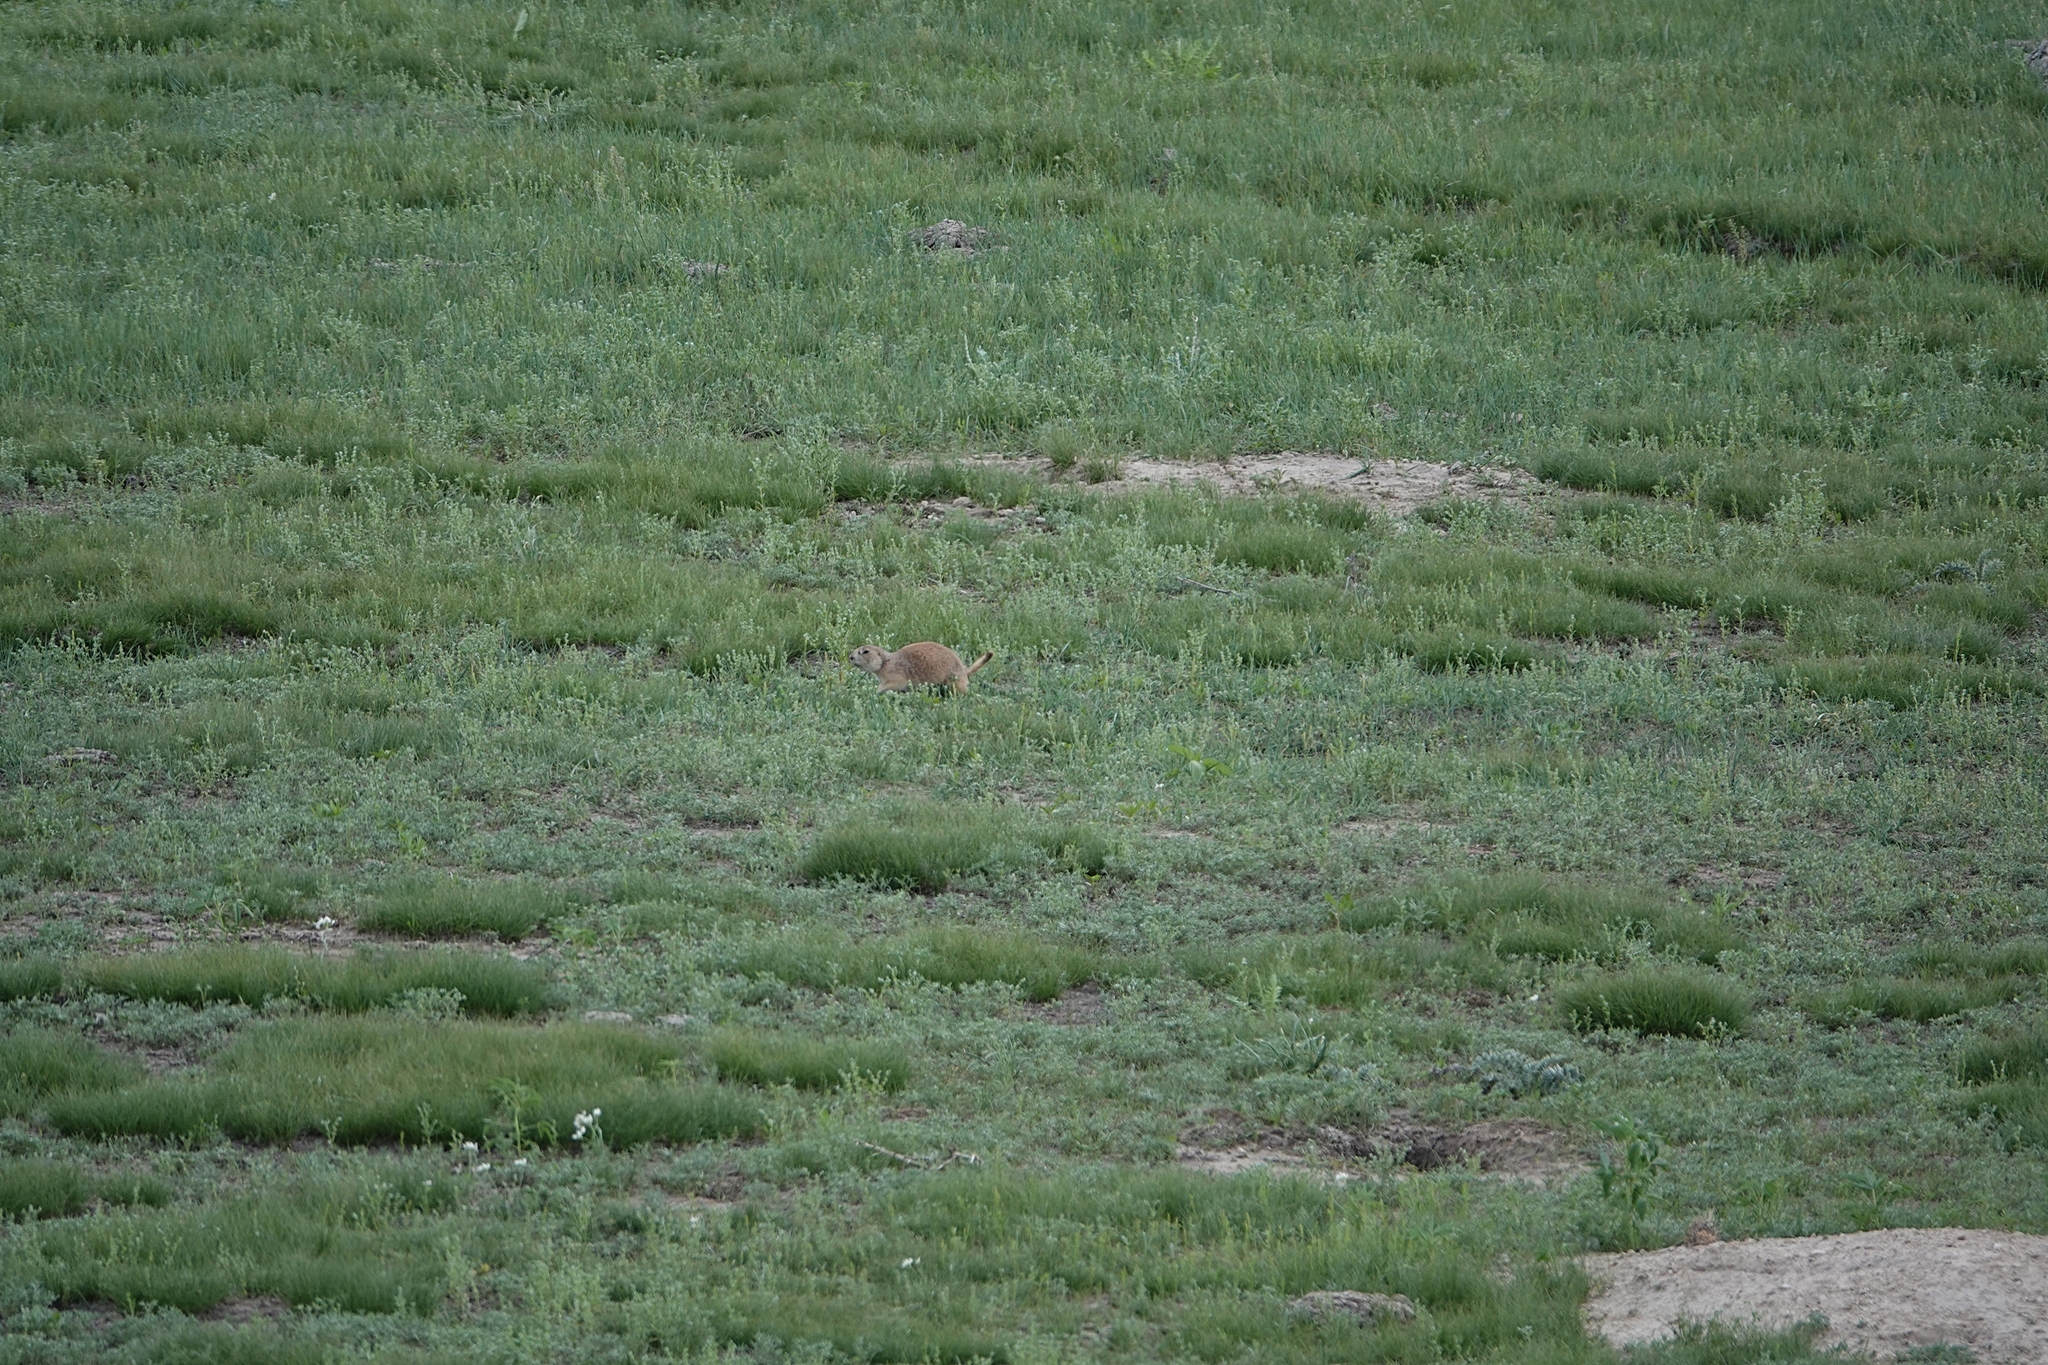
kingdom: Animalia
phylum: Chordata
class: Mammalia
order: Rodentia
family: Sciuridae
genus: Cynomys
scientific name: Cynomys ludovicianus
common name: Black-tailed prairie dog
